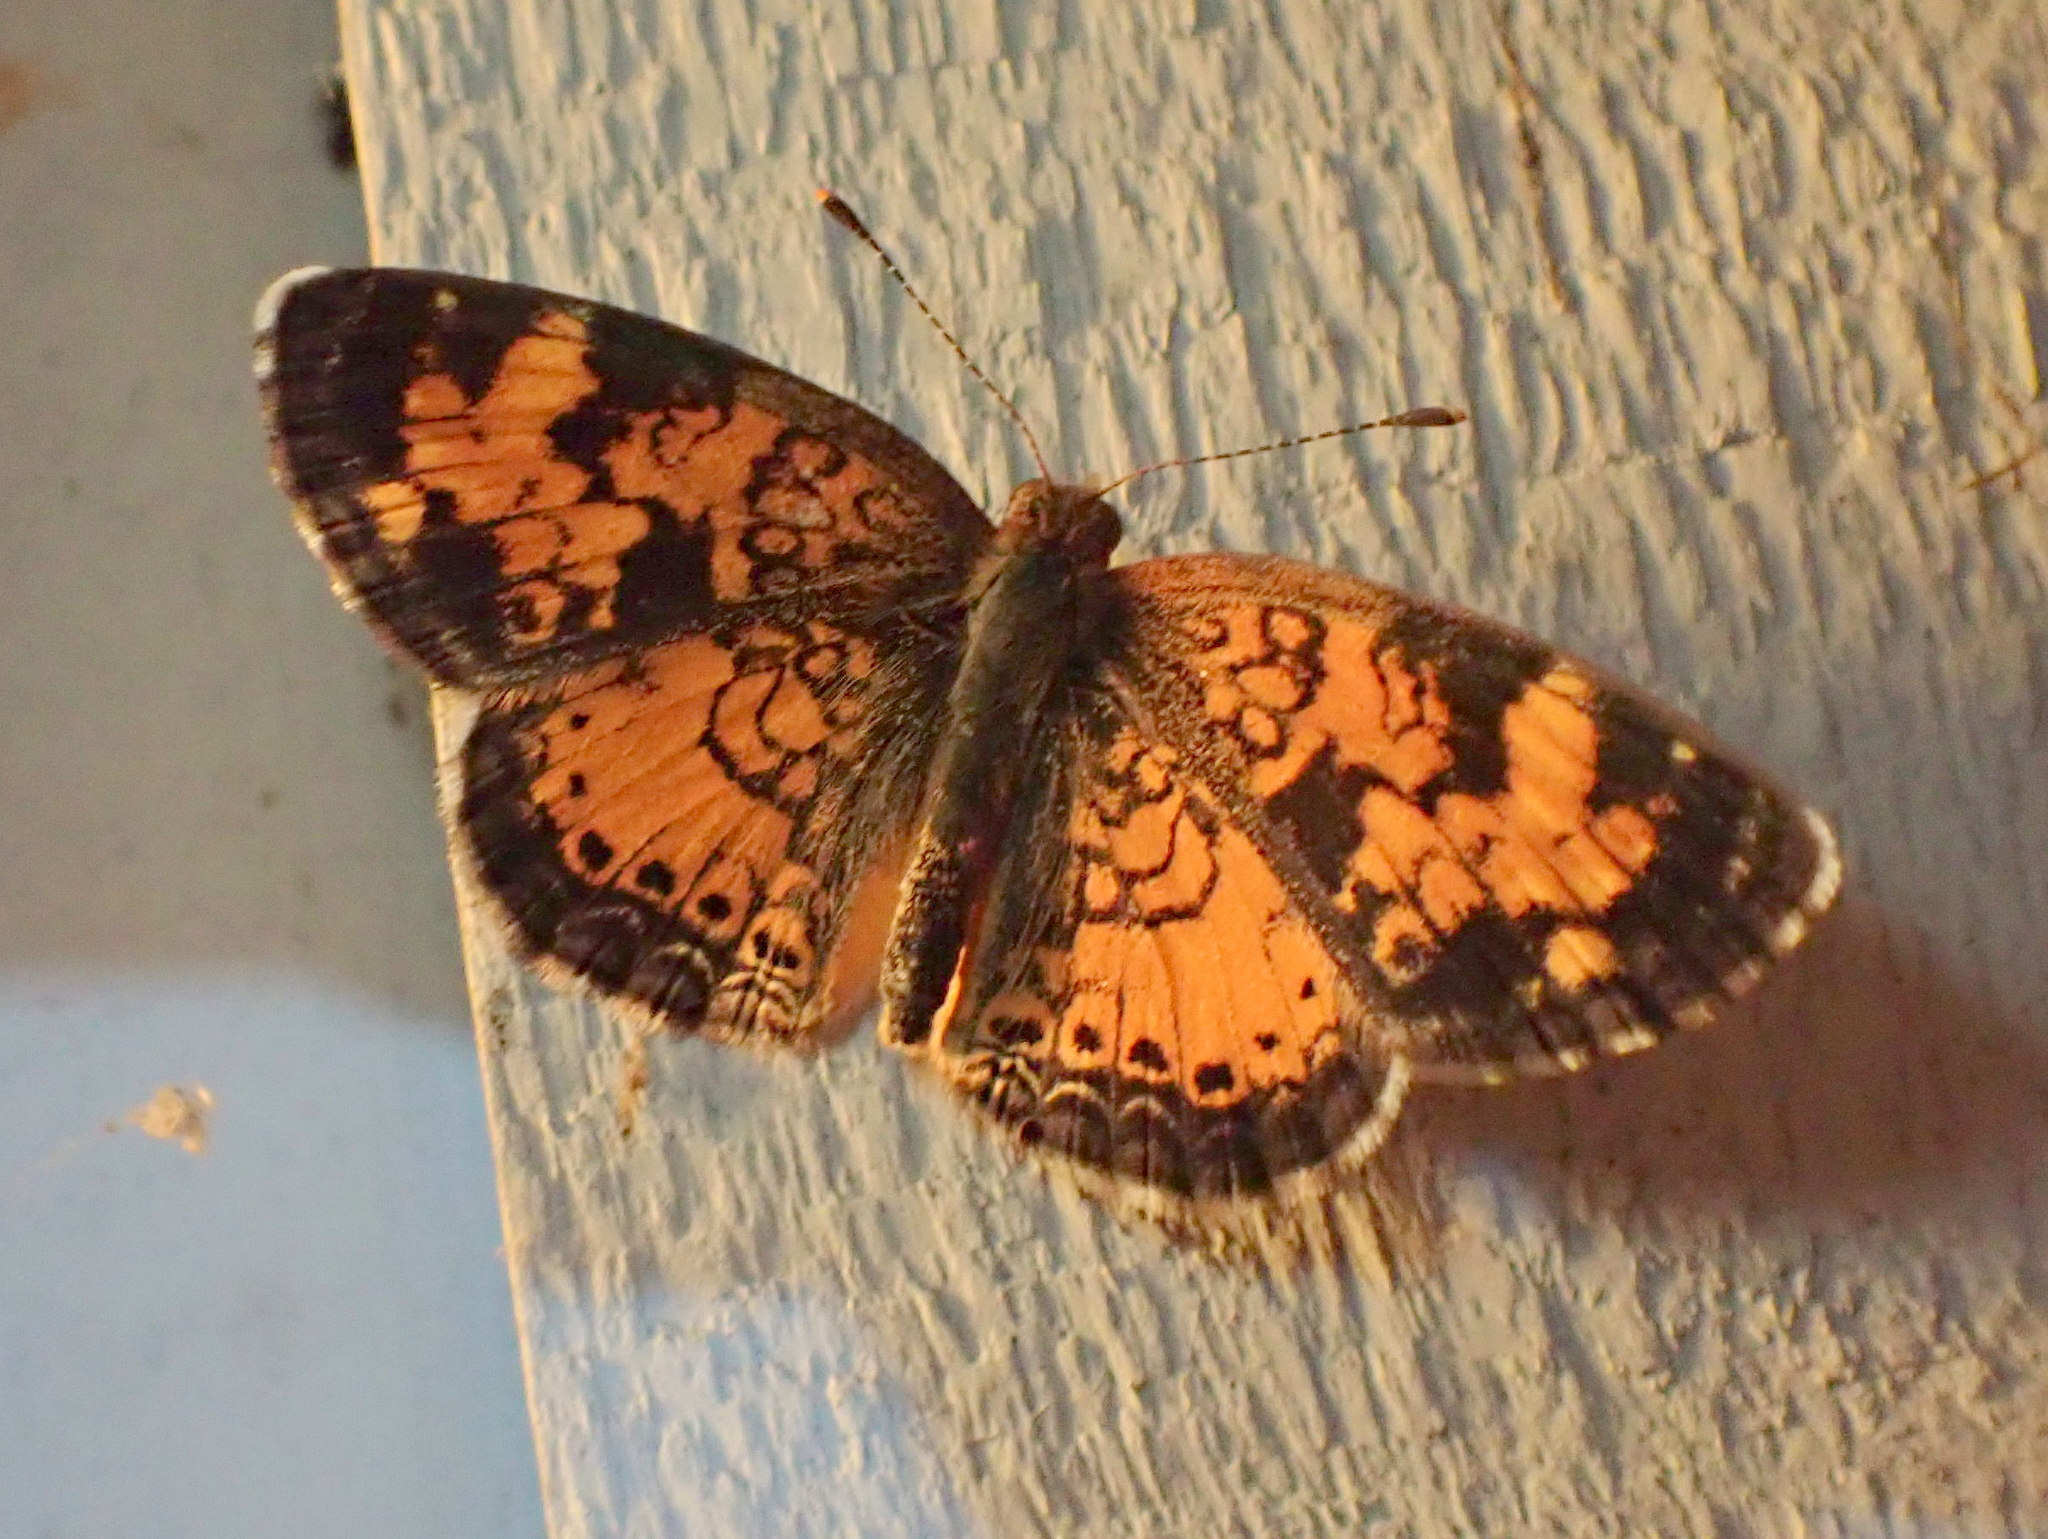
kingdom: Animalia
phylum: Arthropoda
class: Insecta
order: Lepidoptera
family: Nymphalidae
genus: Phyciodes
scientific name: Phyciodes tharos
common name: Pearl crescent
